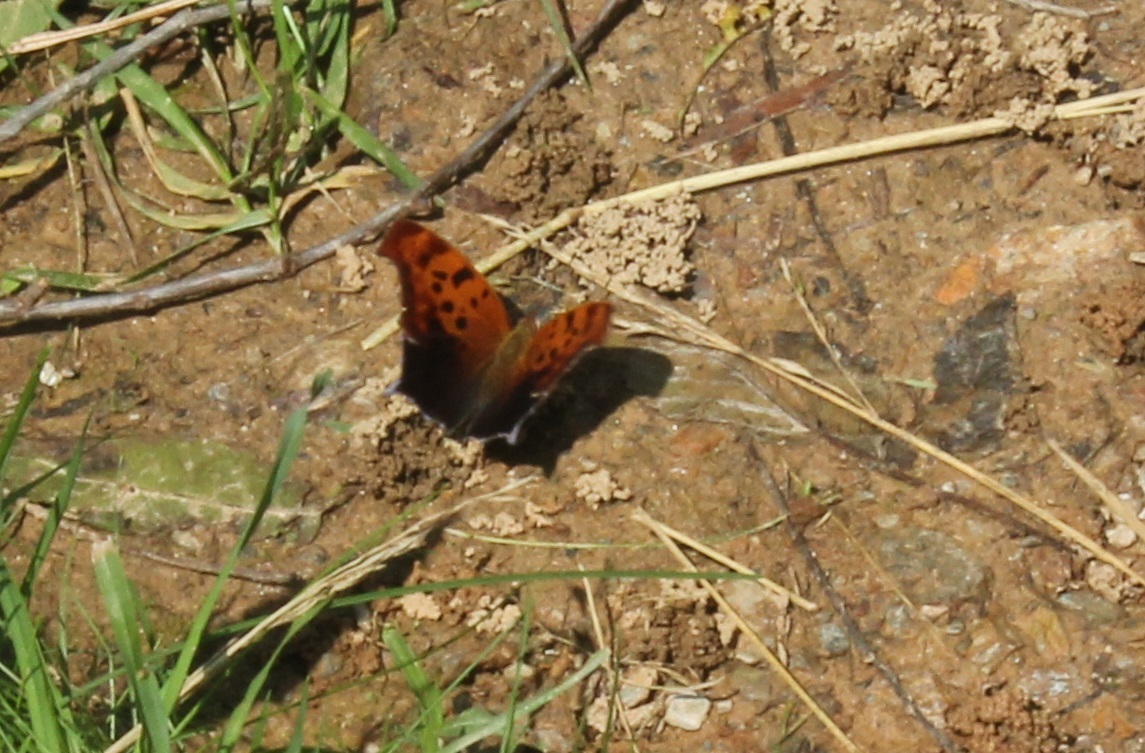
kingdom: Animalia
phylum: Arthropoda
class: Insecta
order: Lepidoptera
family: Nymphalidae
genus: Polygonia
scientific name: Polygonia interrogationis
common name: Question mark
